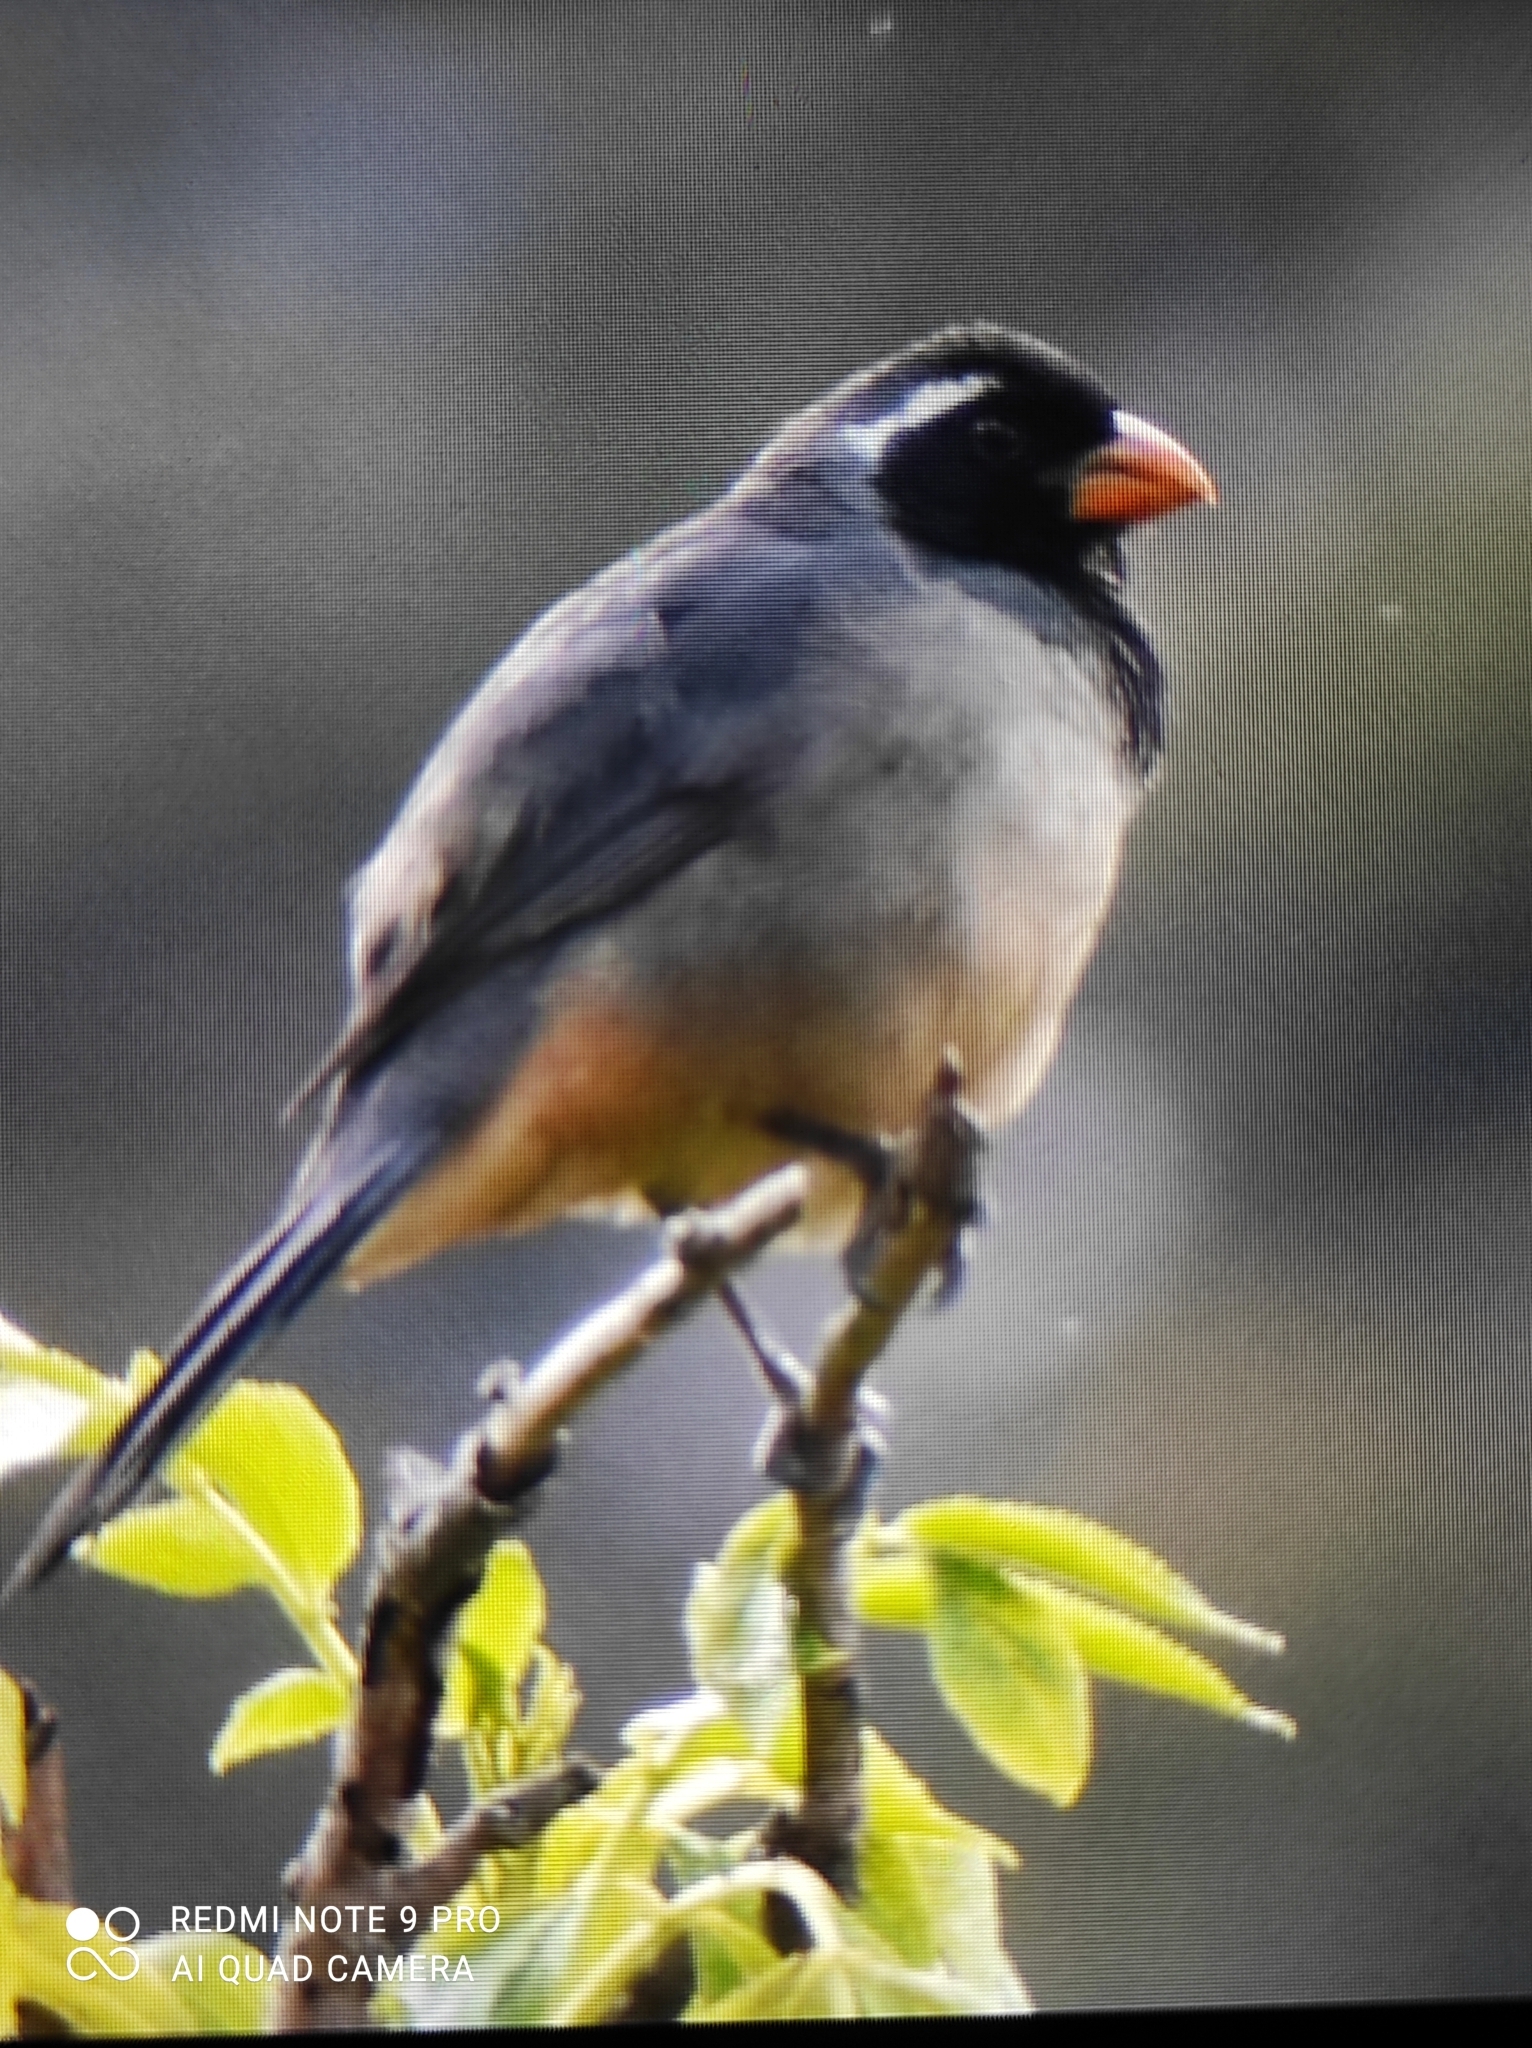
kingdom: Animalia
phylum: Chordata
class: Aves
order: Passeriformes
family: Thraupidae
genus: Saltator
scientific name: Saltator aurantiirostris
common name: Golden-billed saltator
